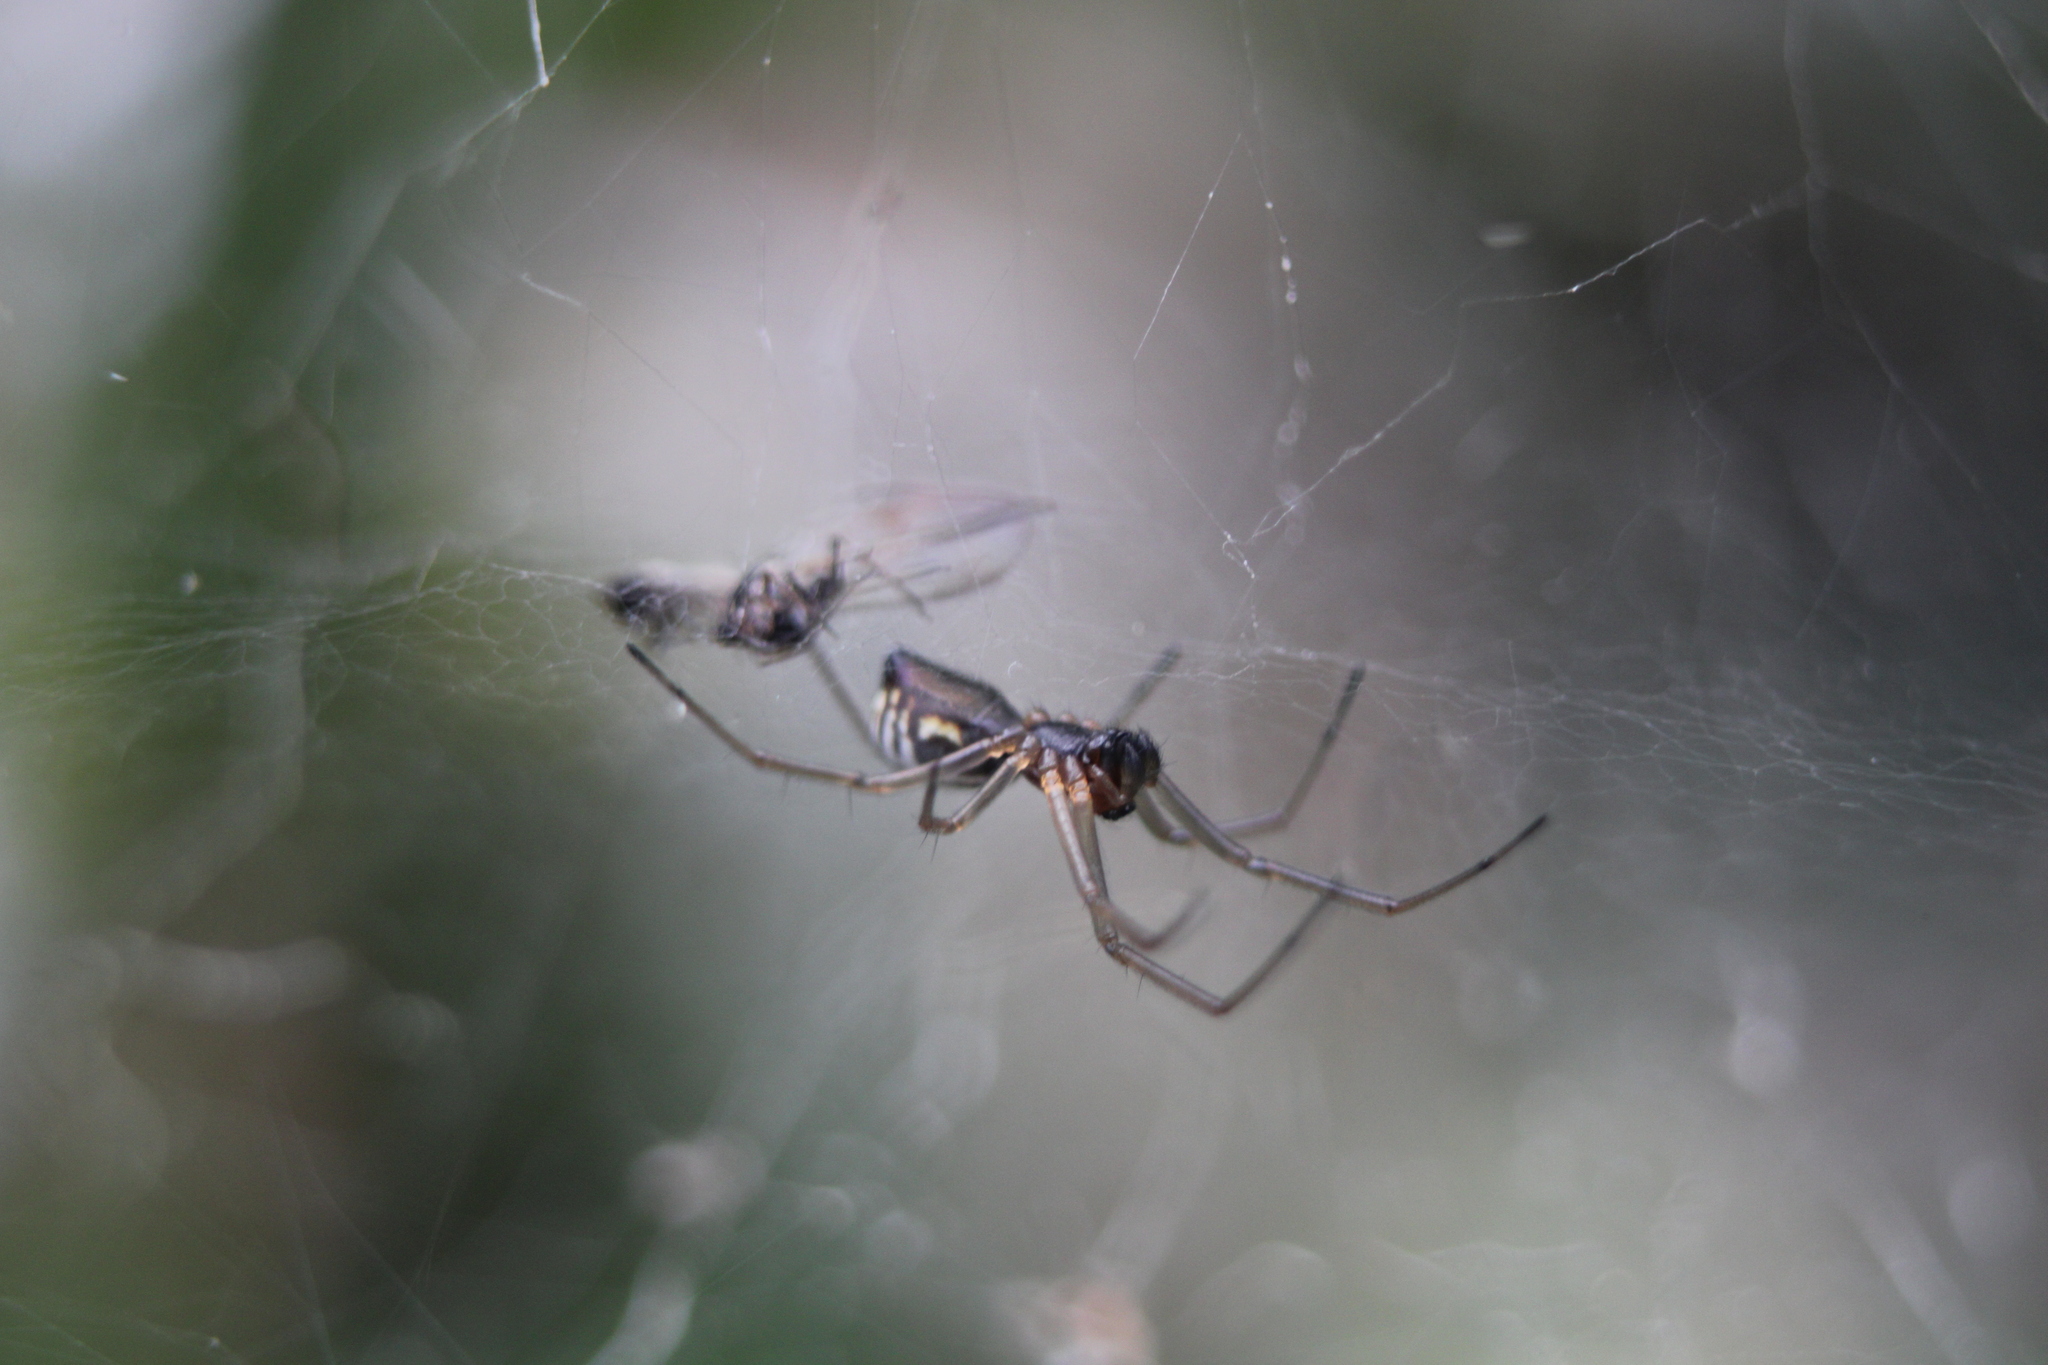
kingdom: Animalia
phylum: Arthropoda
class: Arachnida
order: Araneae
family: Linyphiidae
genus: Frontinella
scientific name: Frontinella pyramitela
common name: Bowl-and-doily spider
